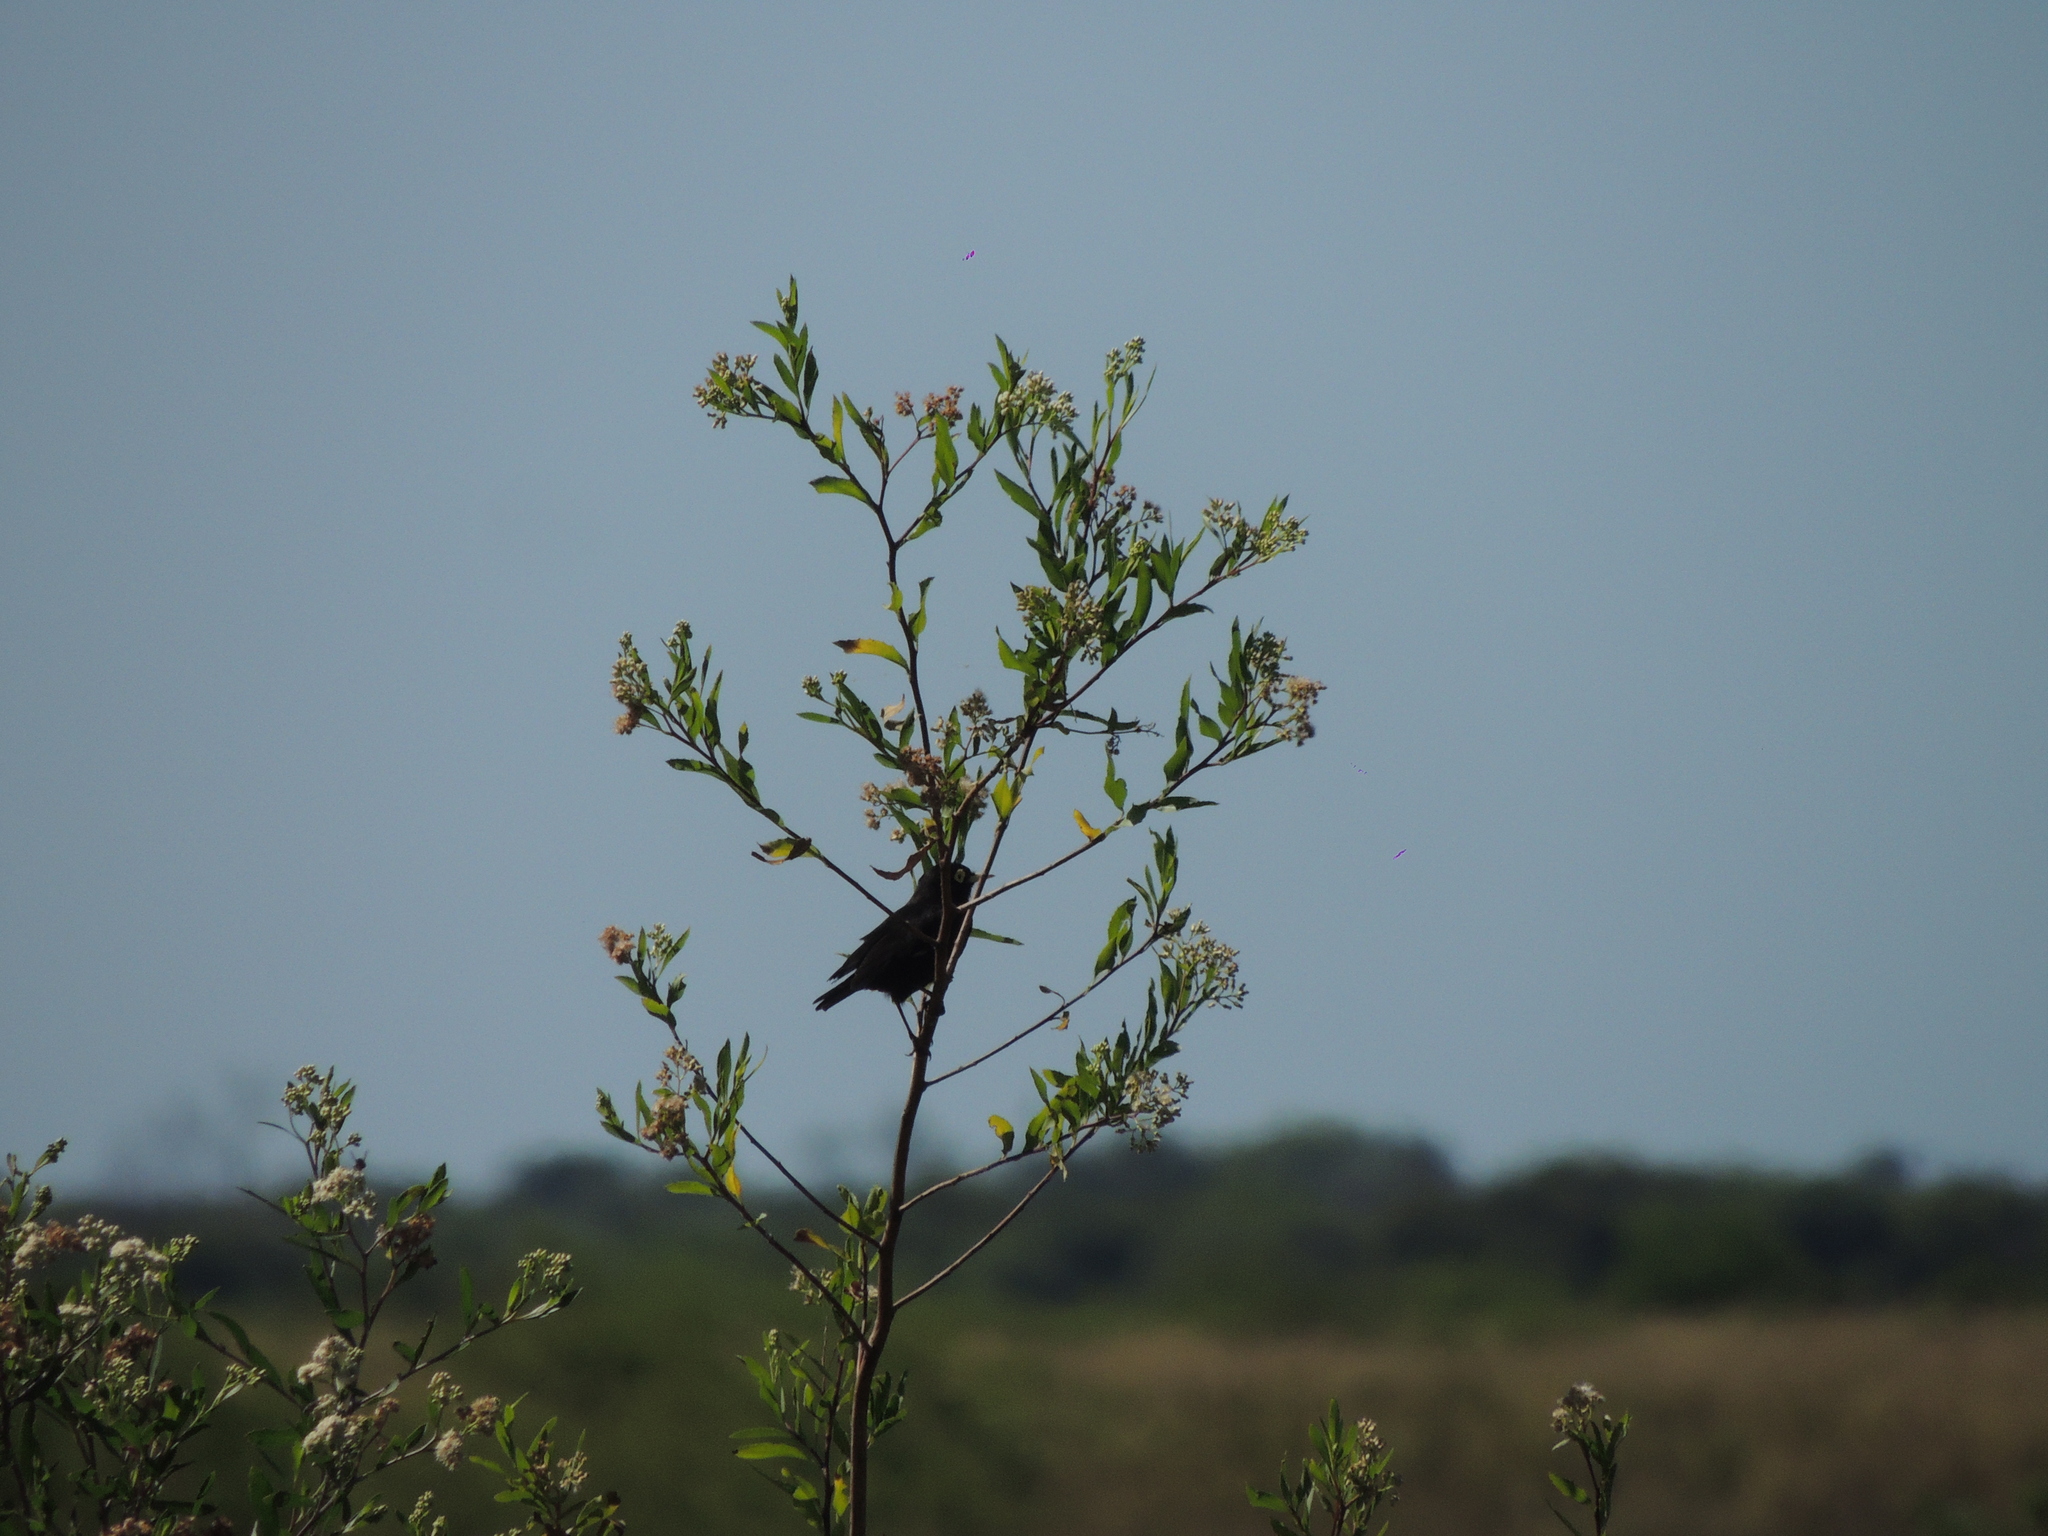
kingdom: Animalia
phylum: Chordata
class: Aves
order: Passeriformes
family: Tyrannidae
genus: Hymenops
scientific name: Hymenops perspicillatus
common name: Spectacled tyrant
